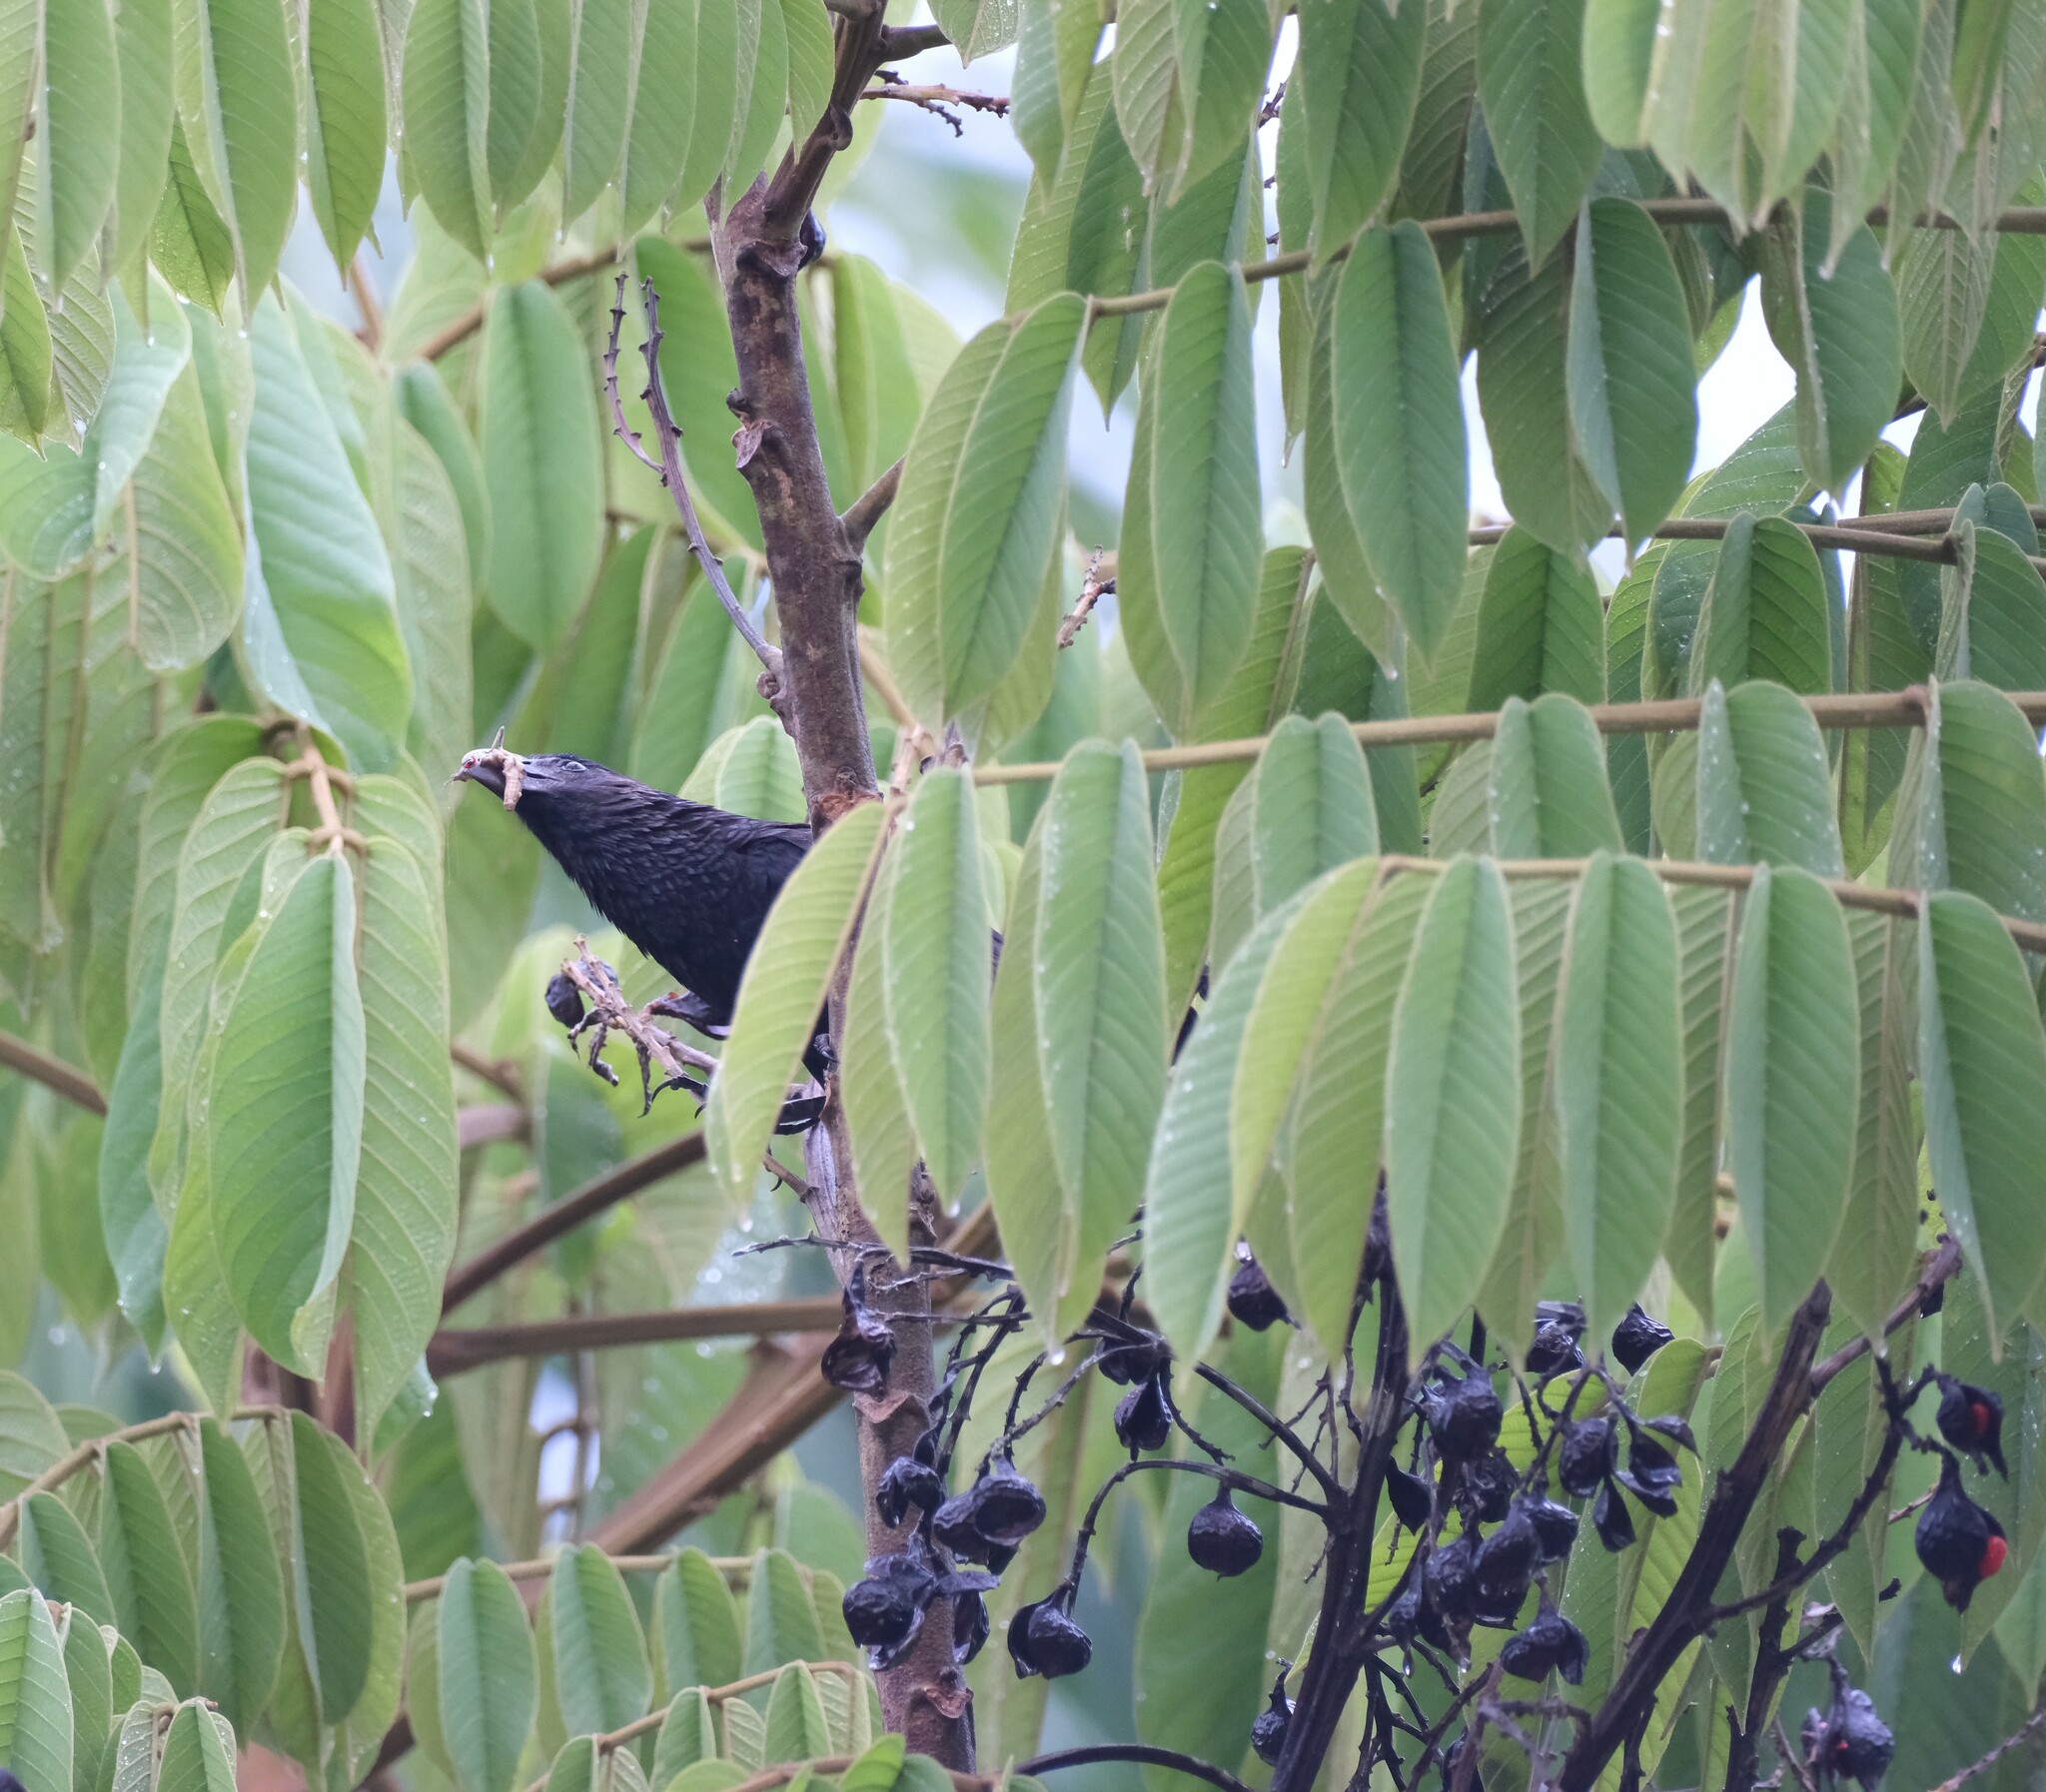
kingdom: Animalia
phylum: Chordata
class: Aves
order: Cuculiformes
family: Cuculidae
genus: Crotophaga
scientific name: Crotophaga ani
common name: Smooth-billed ani
